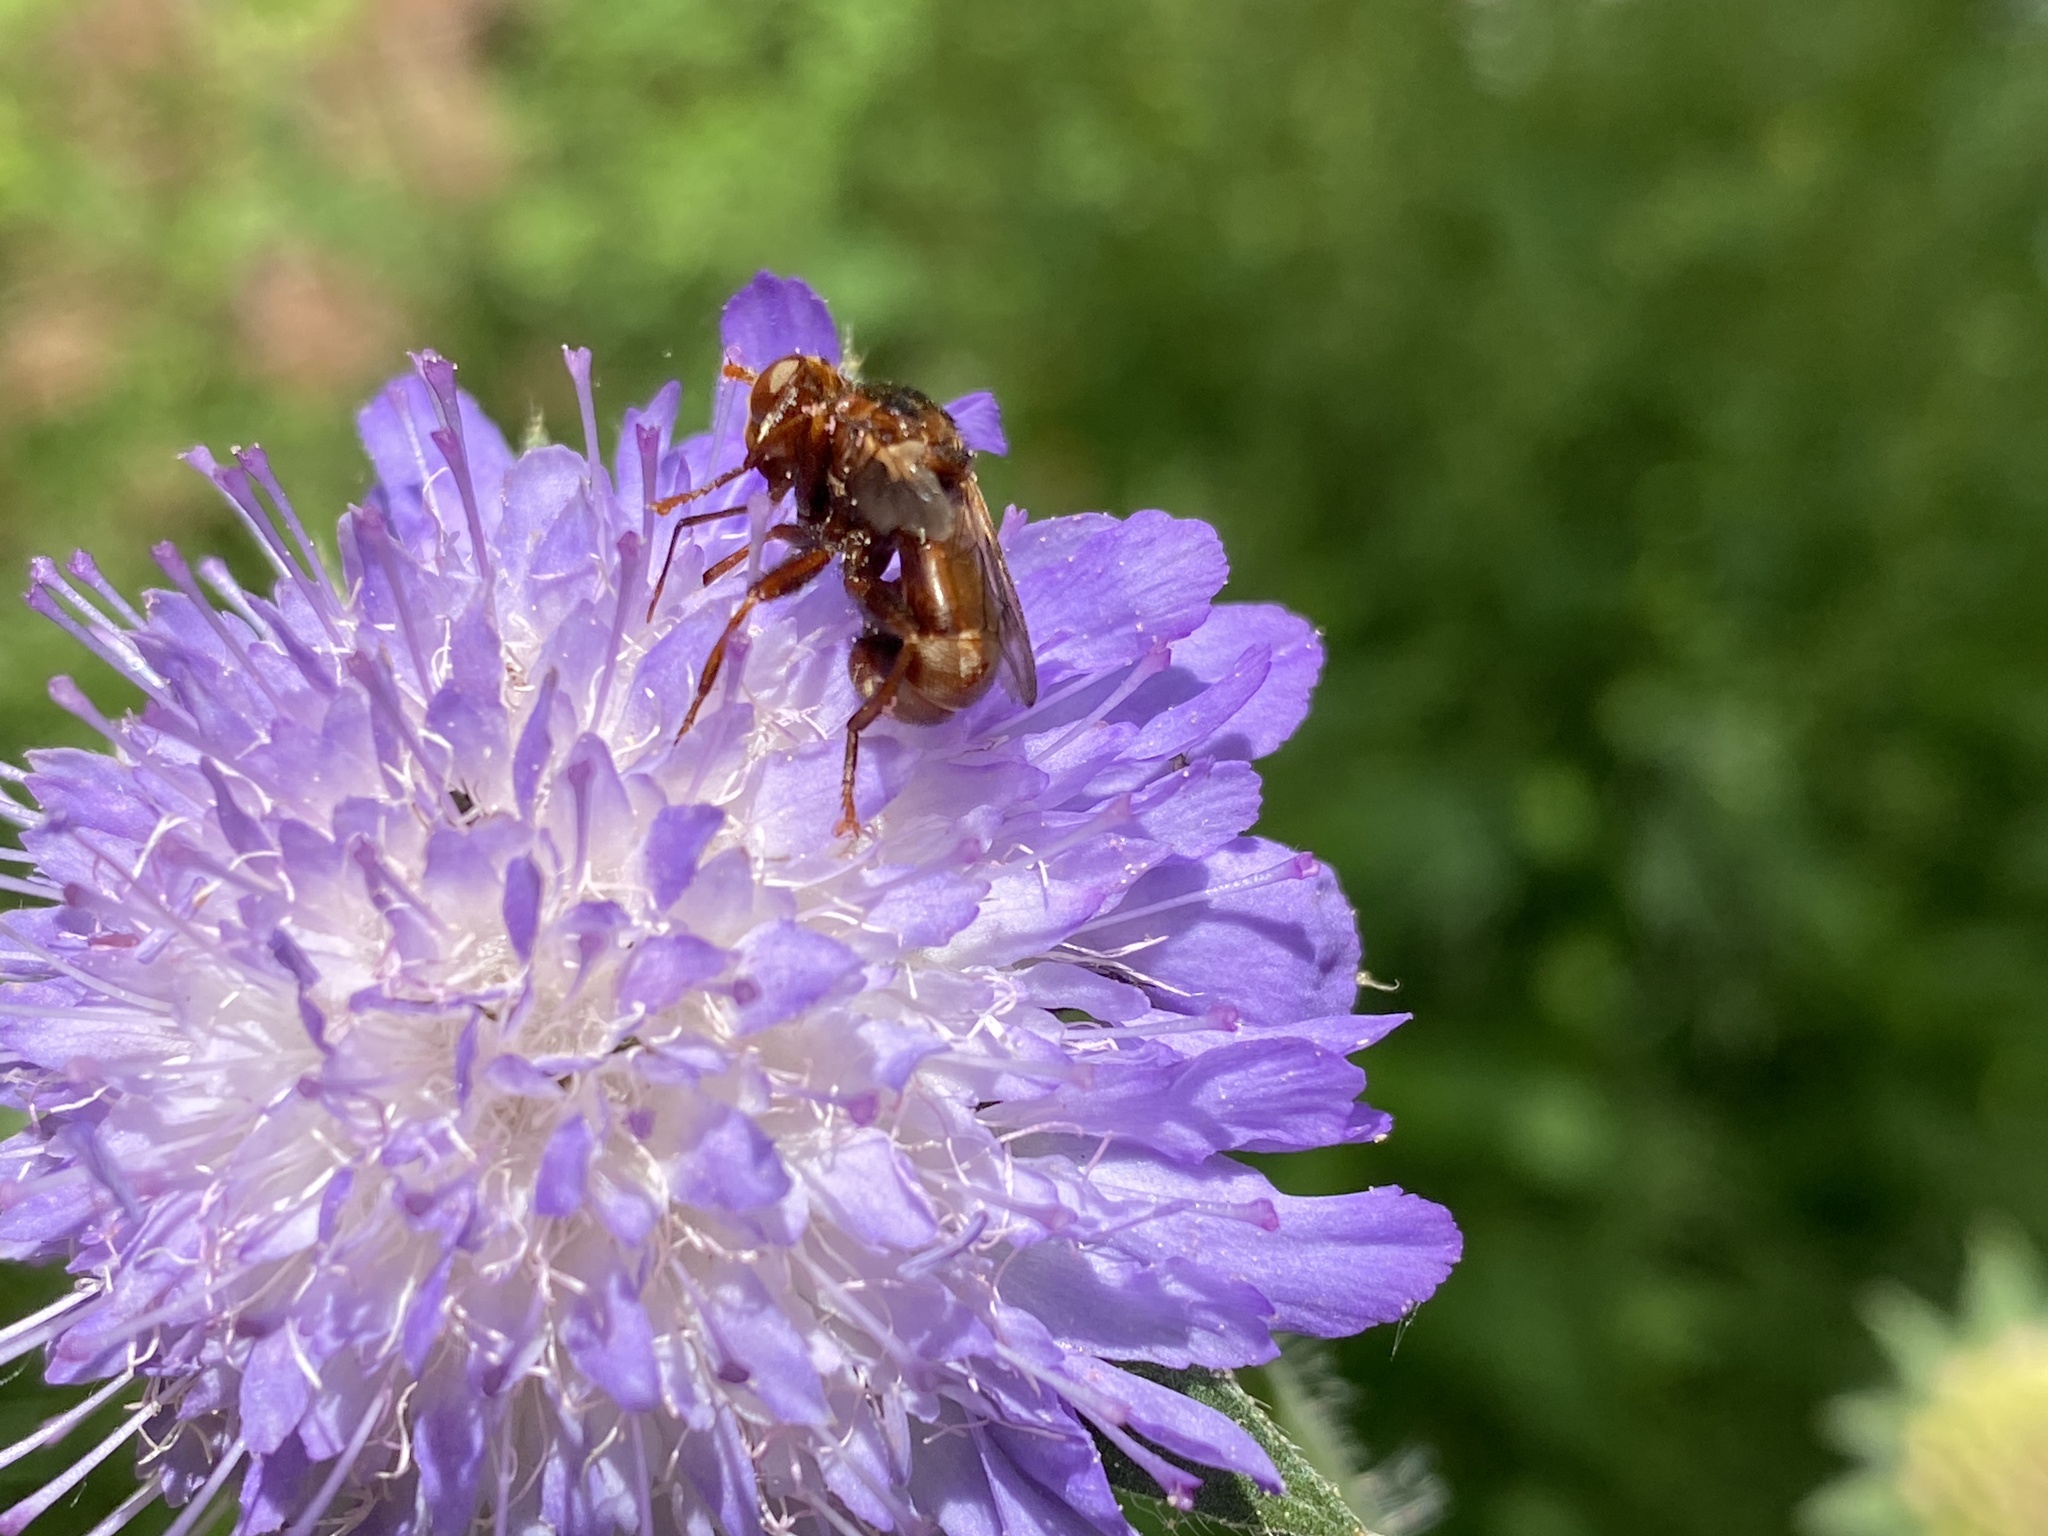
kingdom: Animalia
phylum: Arthropoda
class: Insecta
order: Diptera
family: Conopidae
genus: Sicus
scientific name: Sicus ferrugineus
